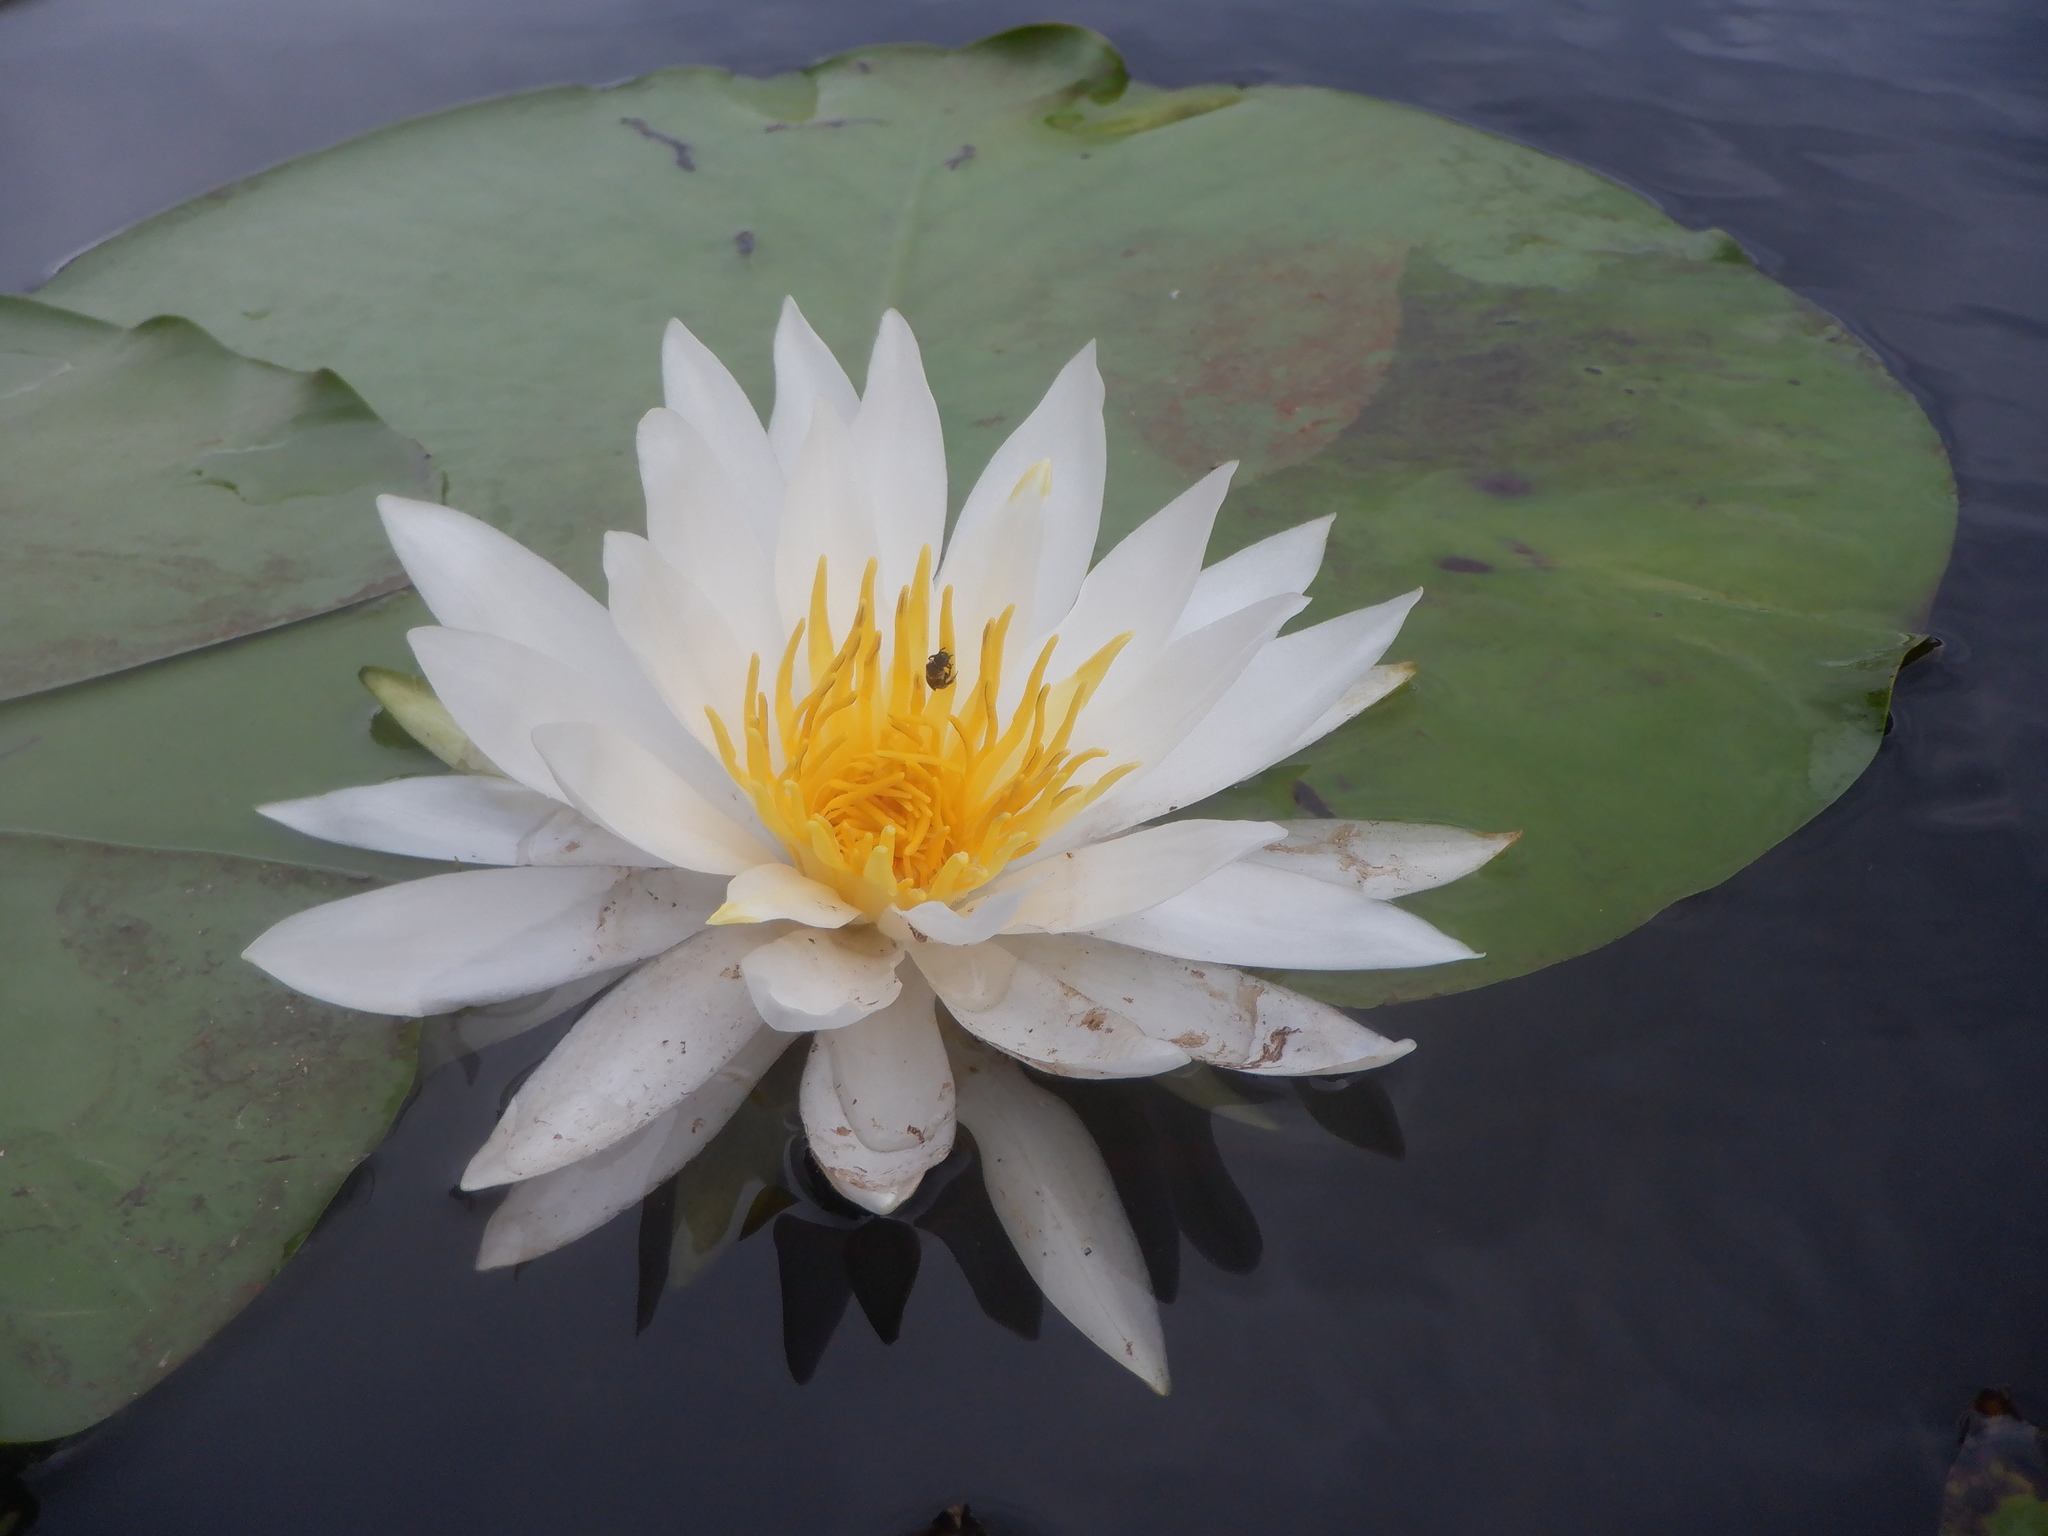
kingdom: Plantae
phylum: Tracheophyta
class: Magnoliopsida
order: Nymphaeales
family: Nymphaeaceae
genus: Nymphaea
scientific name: Nymphaea odorata
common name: Fragrant water-lily
